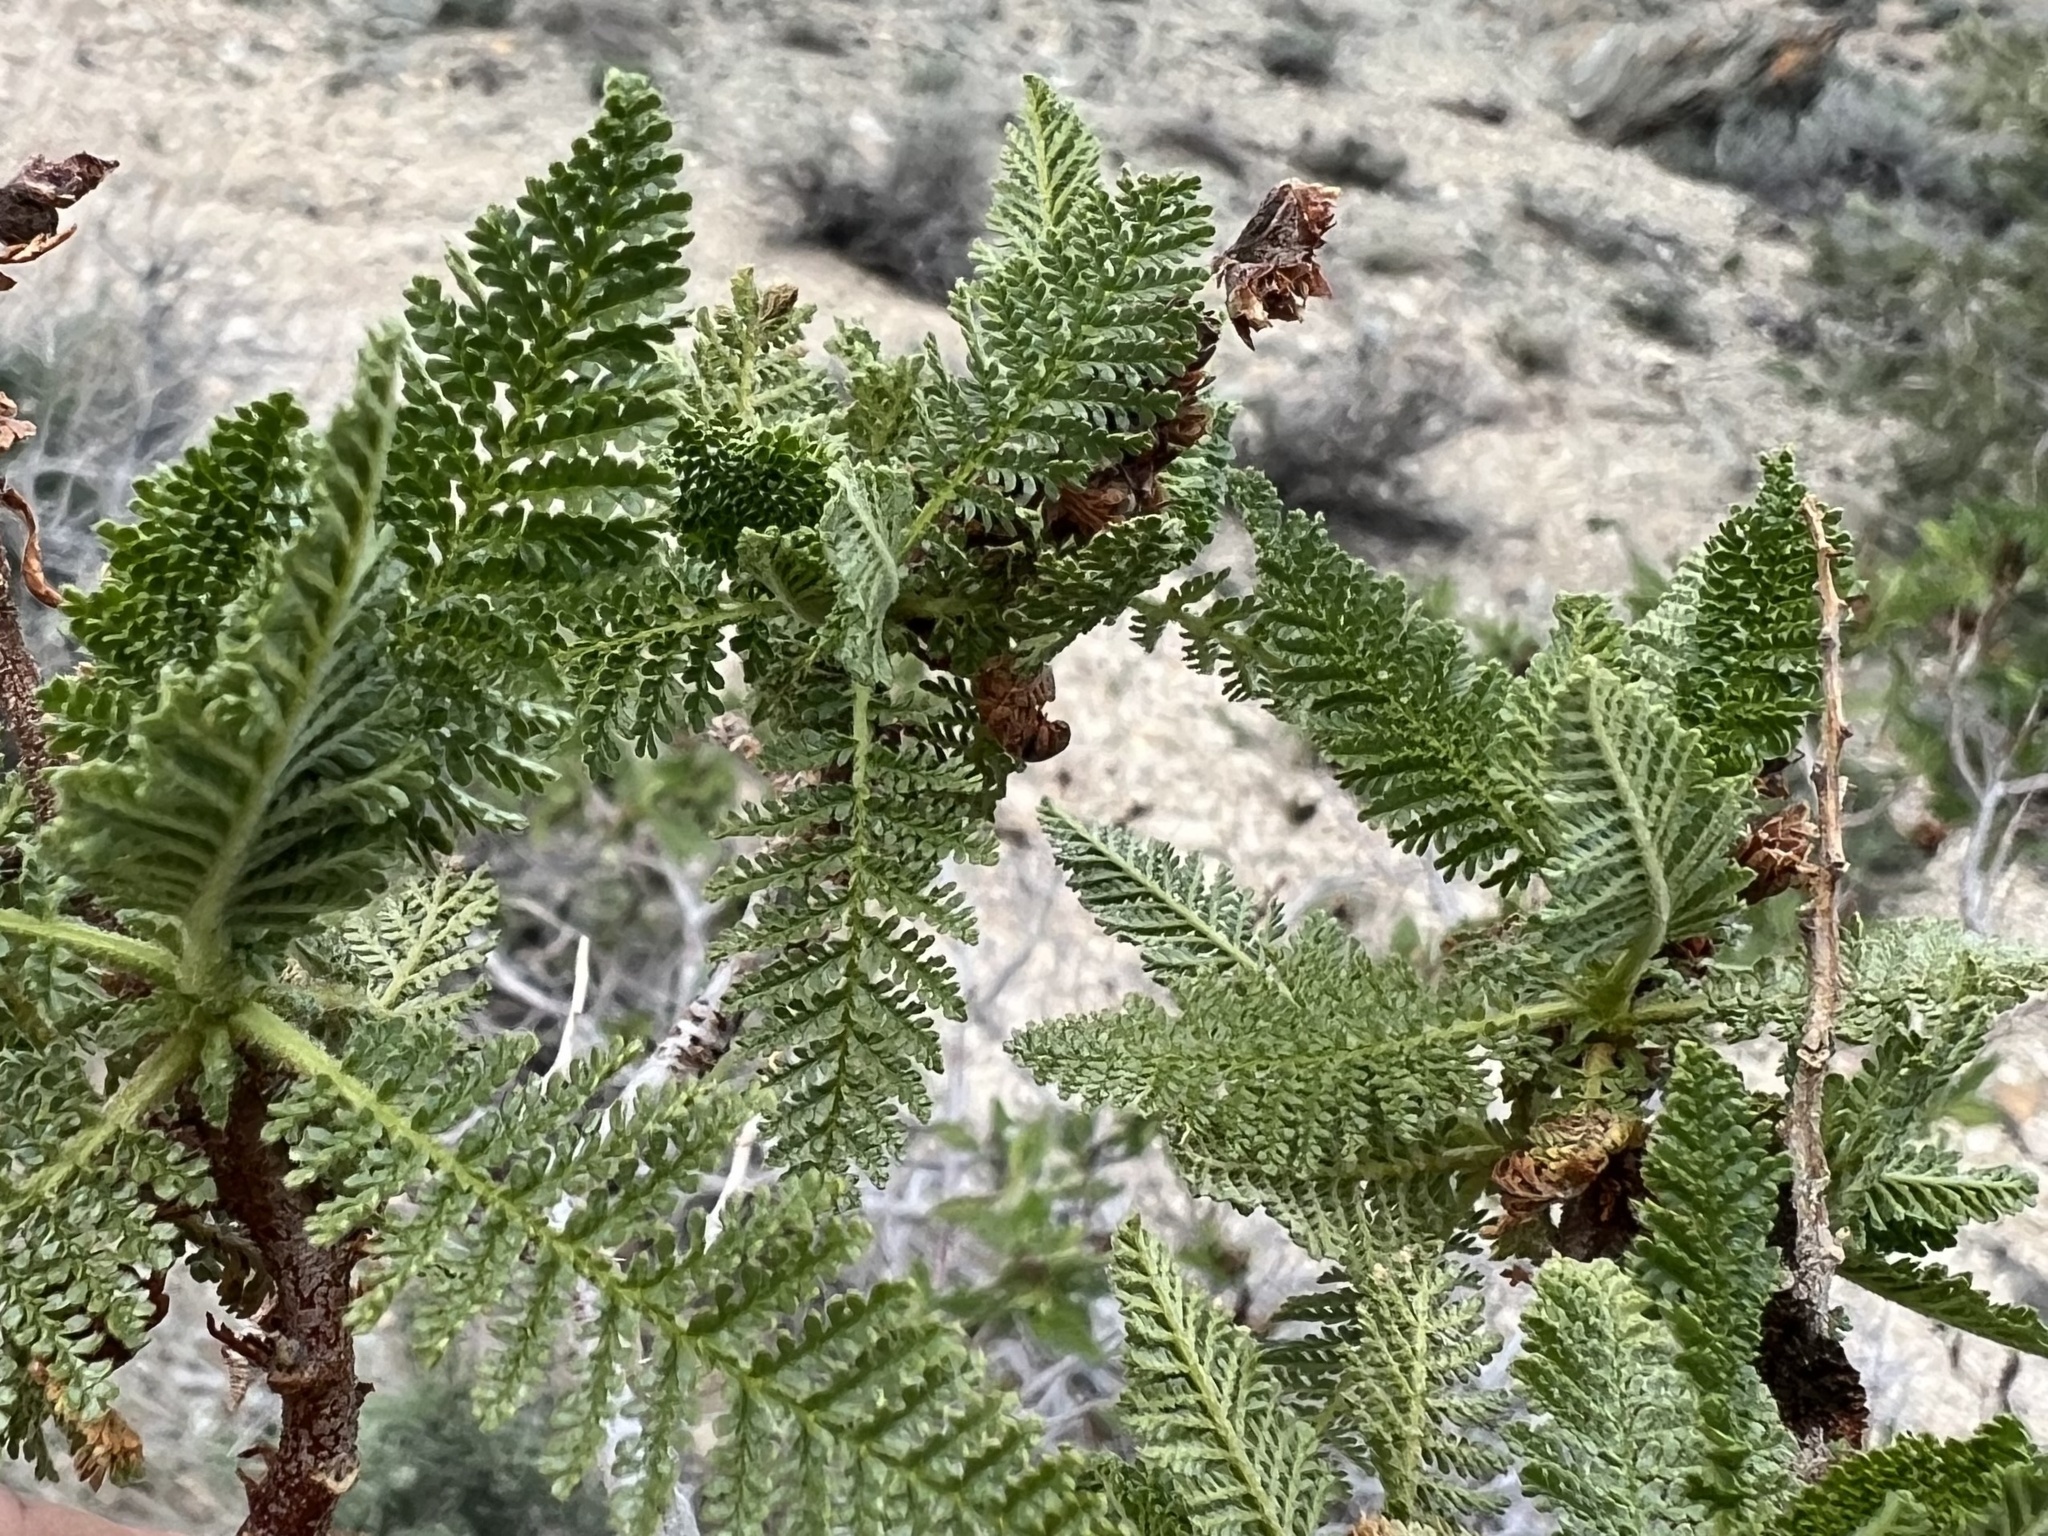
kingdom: Plantae
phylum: Tracheophyta
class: Magnoliopsida
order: Rosales
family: Rosaceae
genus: Chamaebatiaria
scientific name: Chamaebatiaria millefolium
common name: Fernbush
